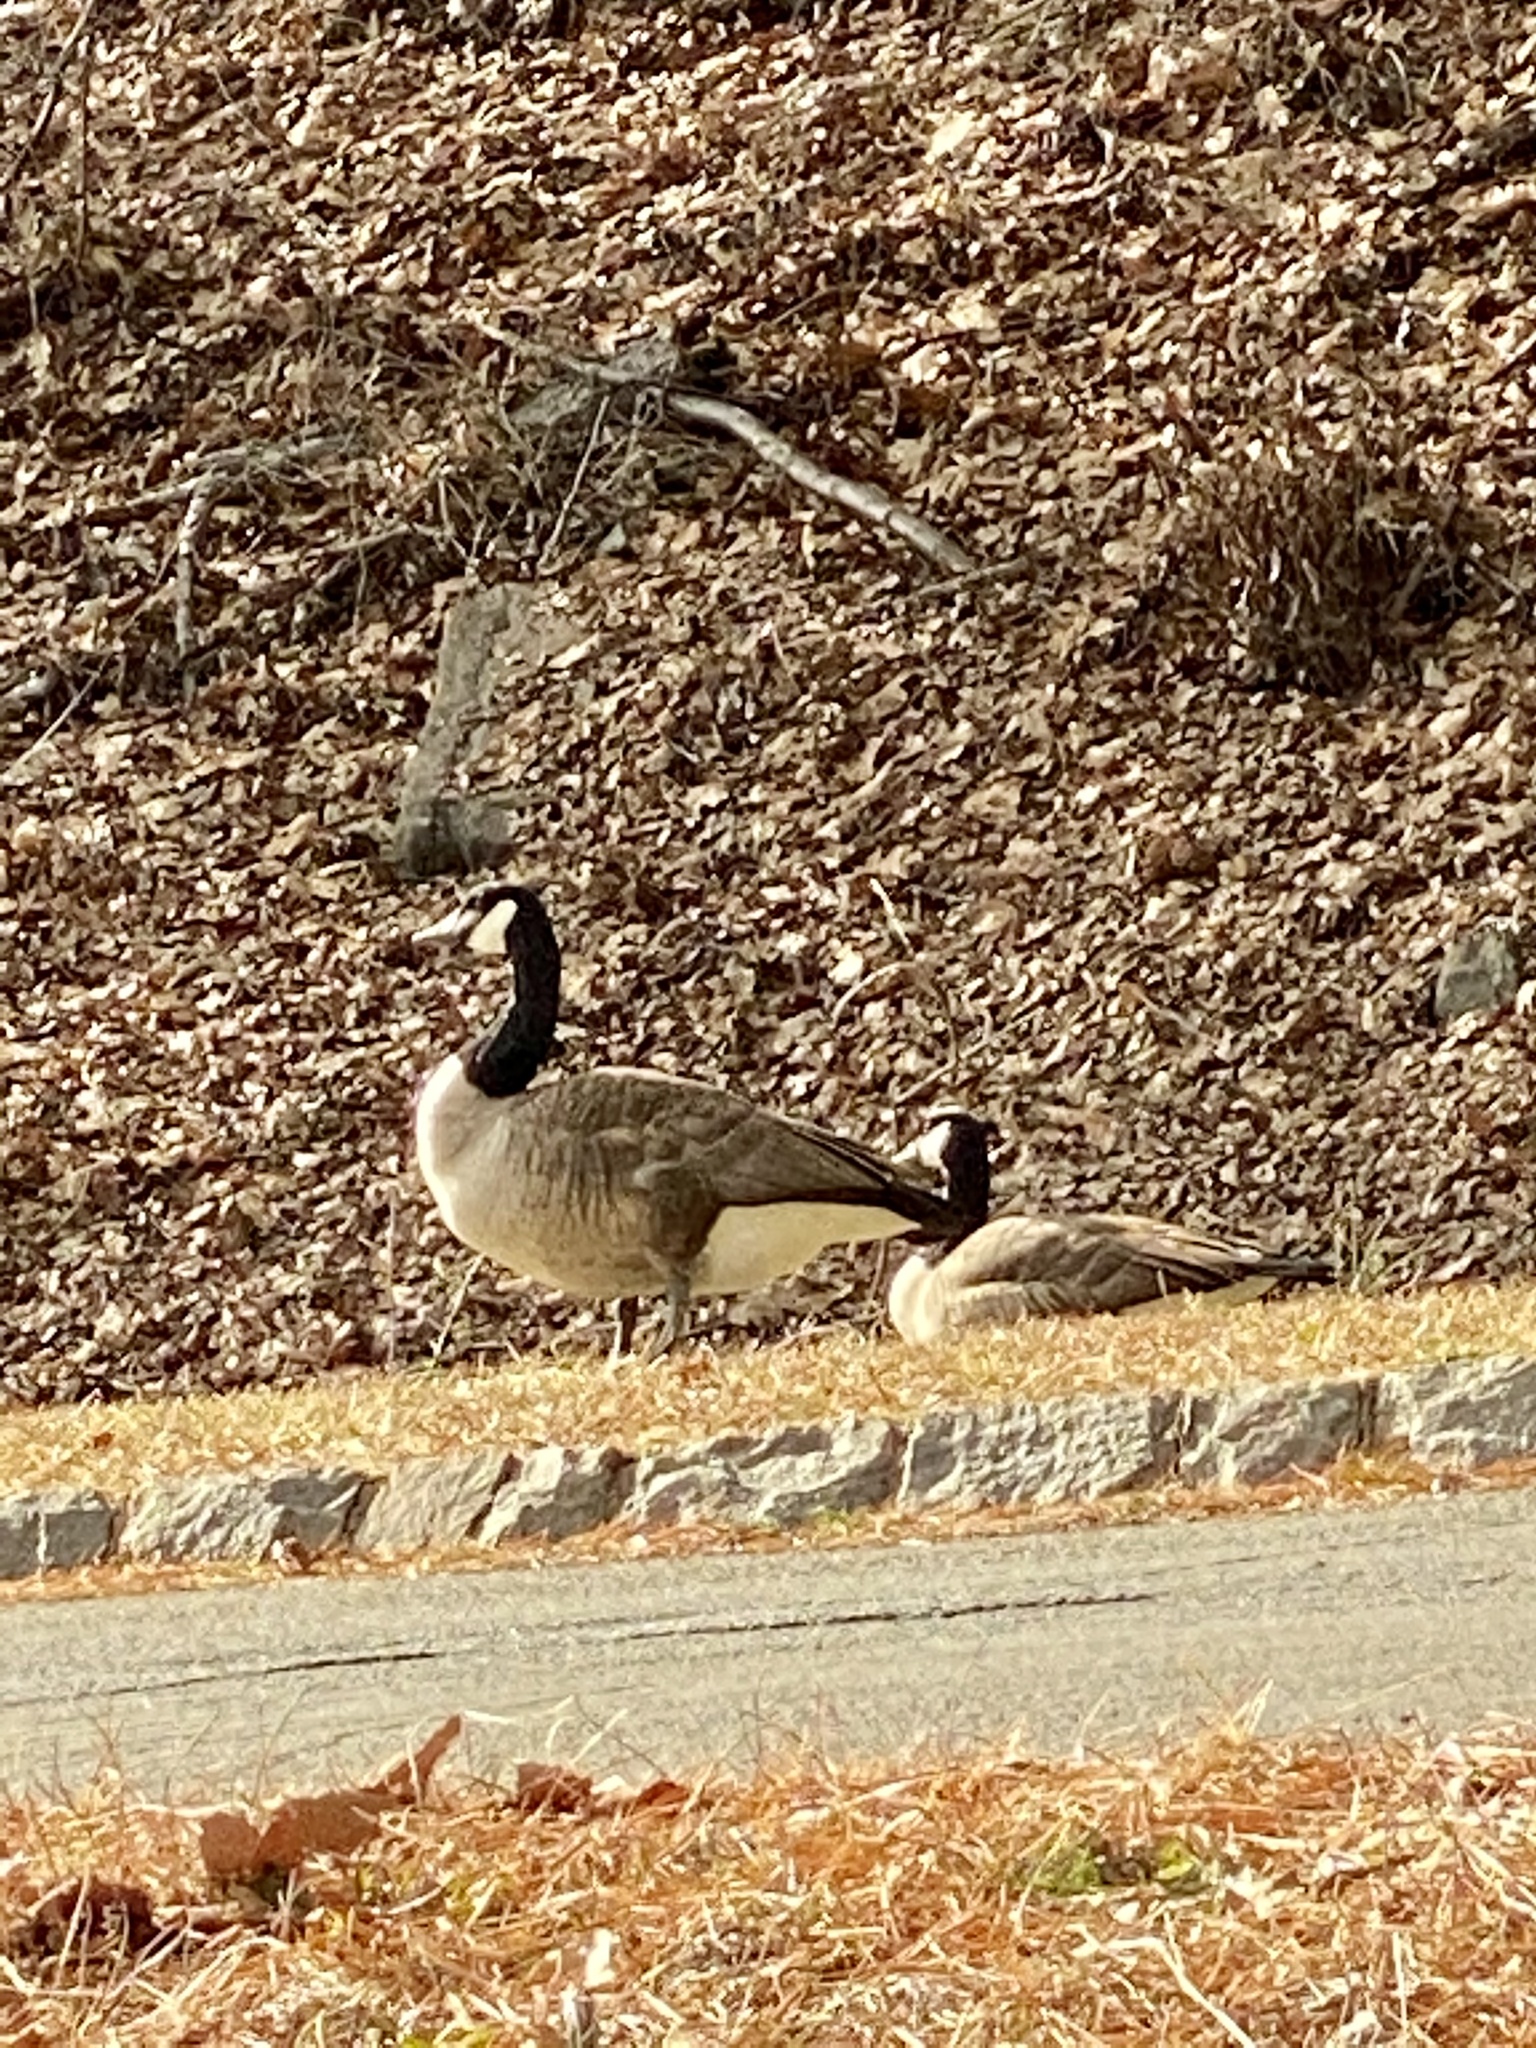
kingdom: Animalia
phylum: Chordata
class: Aves
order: Anseriformes
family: Anatidae
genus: Branta
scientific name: Branta canadensis
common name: Canada goose
